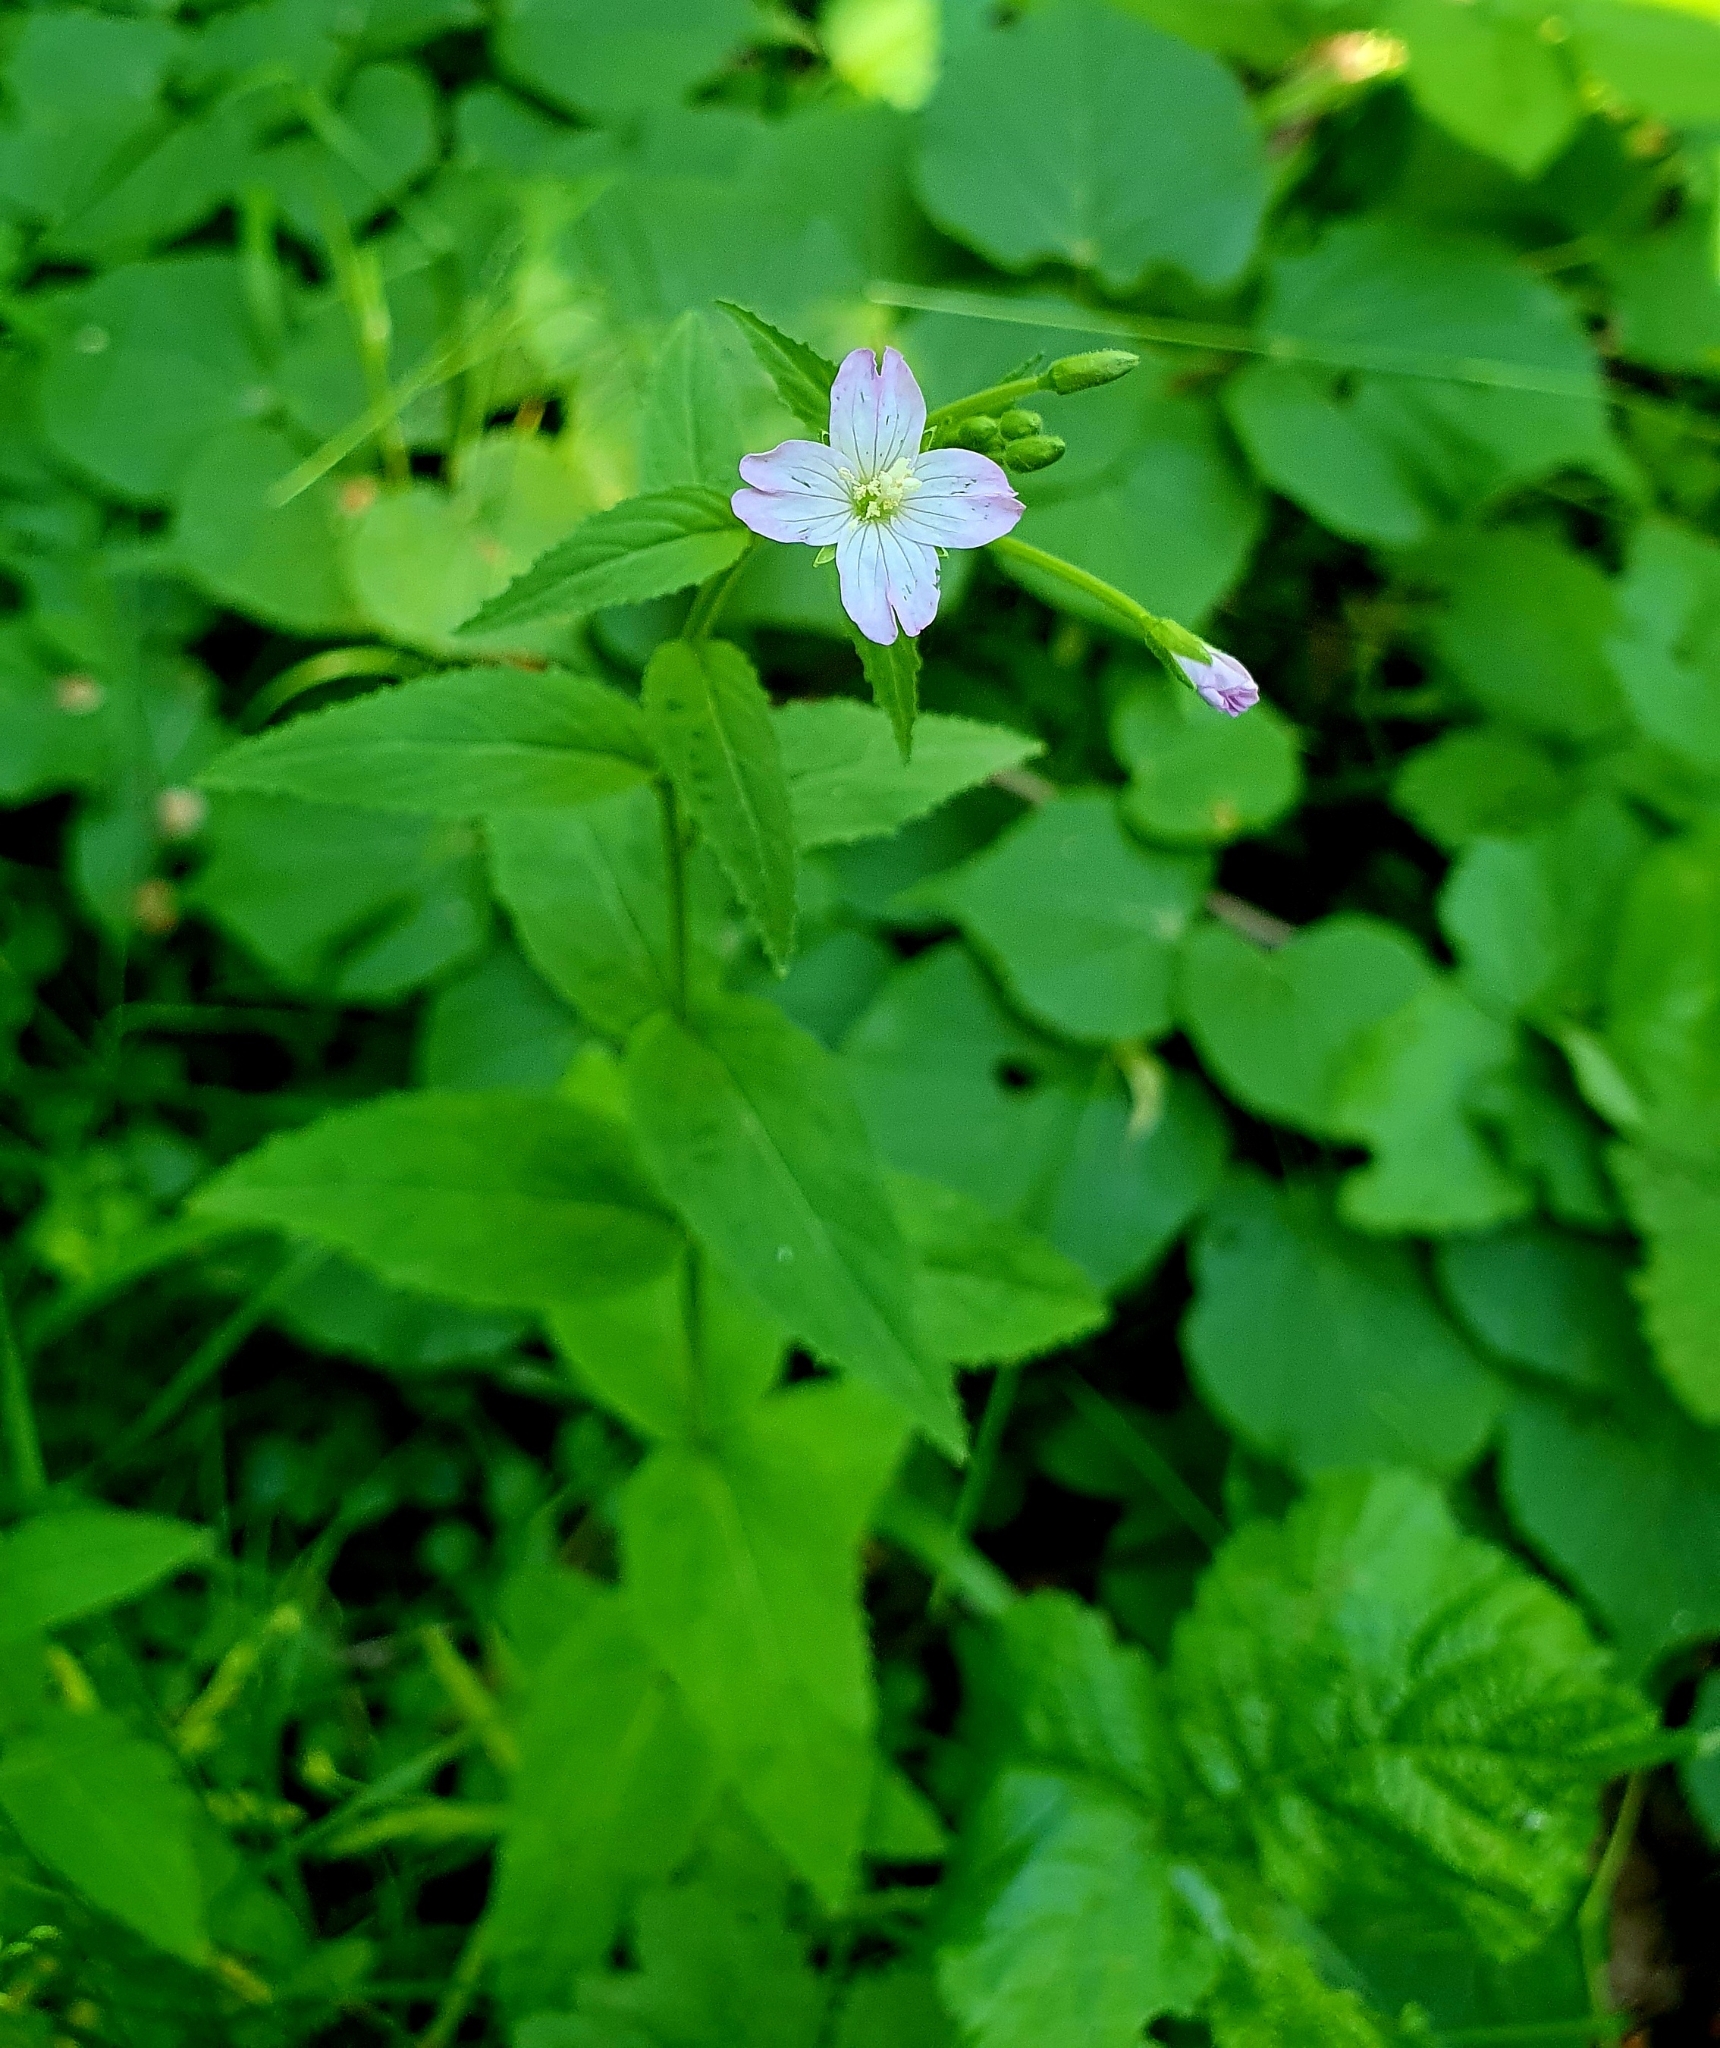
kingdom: Plantae
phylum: Tracheophyta
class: Magnoliopsida
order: Myrtales
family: Onagraceae
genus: Epilobium
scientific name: Epilobium montanum
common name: Broad-leaved willowherb
